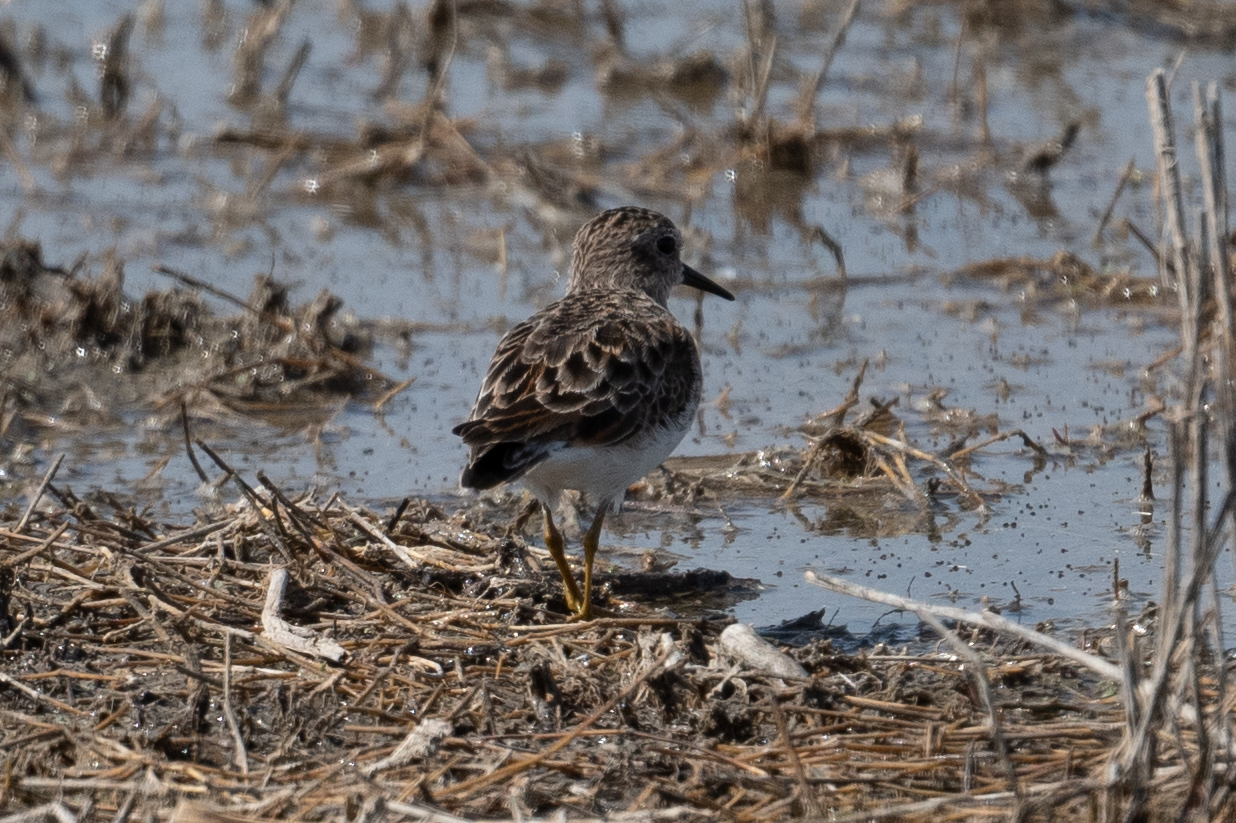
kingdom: Animalia
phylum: Chordata
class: Aves
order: Charadriiformes
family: Scolopacidae
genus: Calidris
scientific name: Calidris minutilla
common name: Least sandpiper
